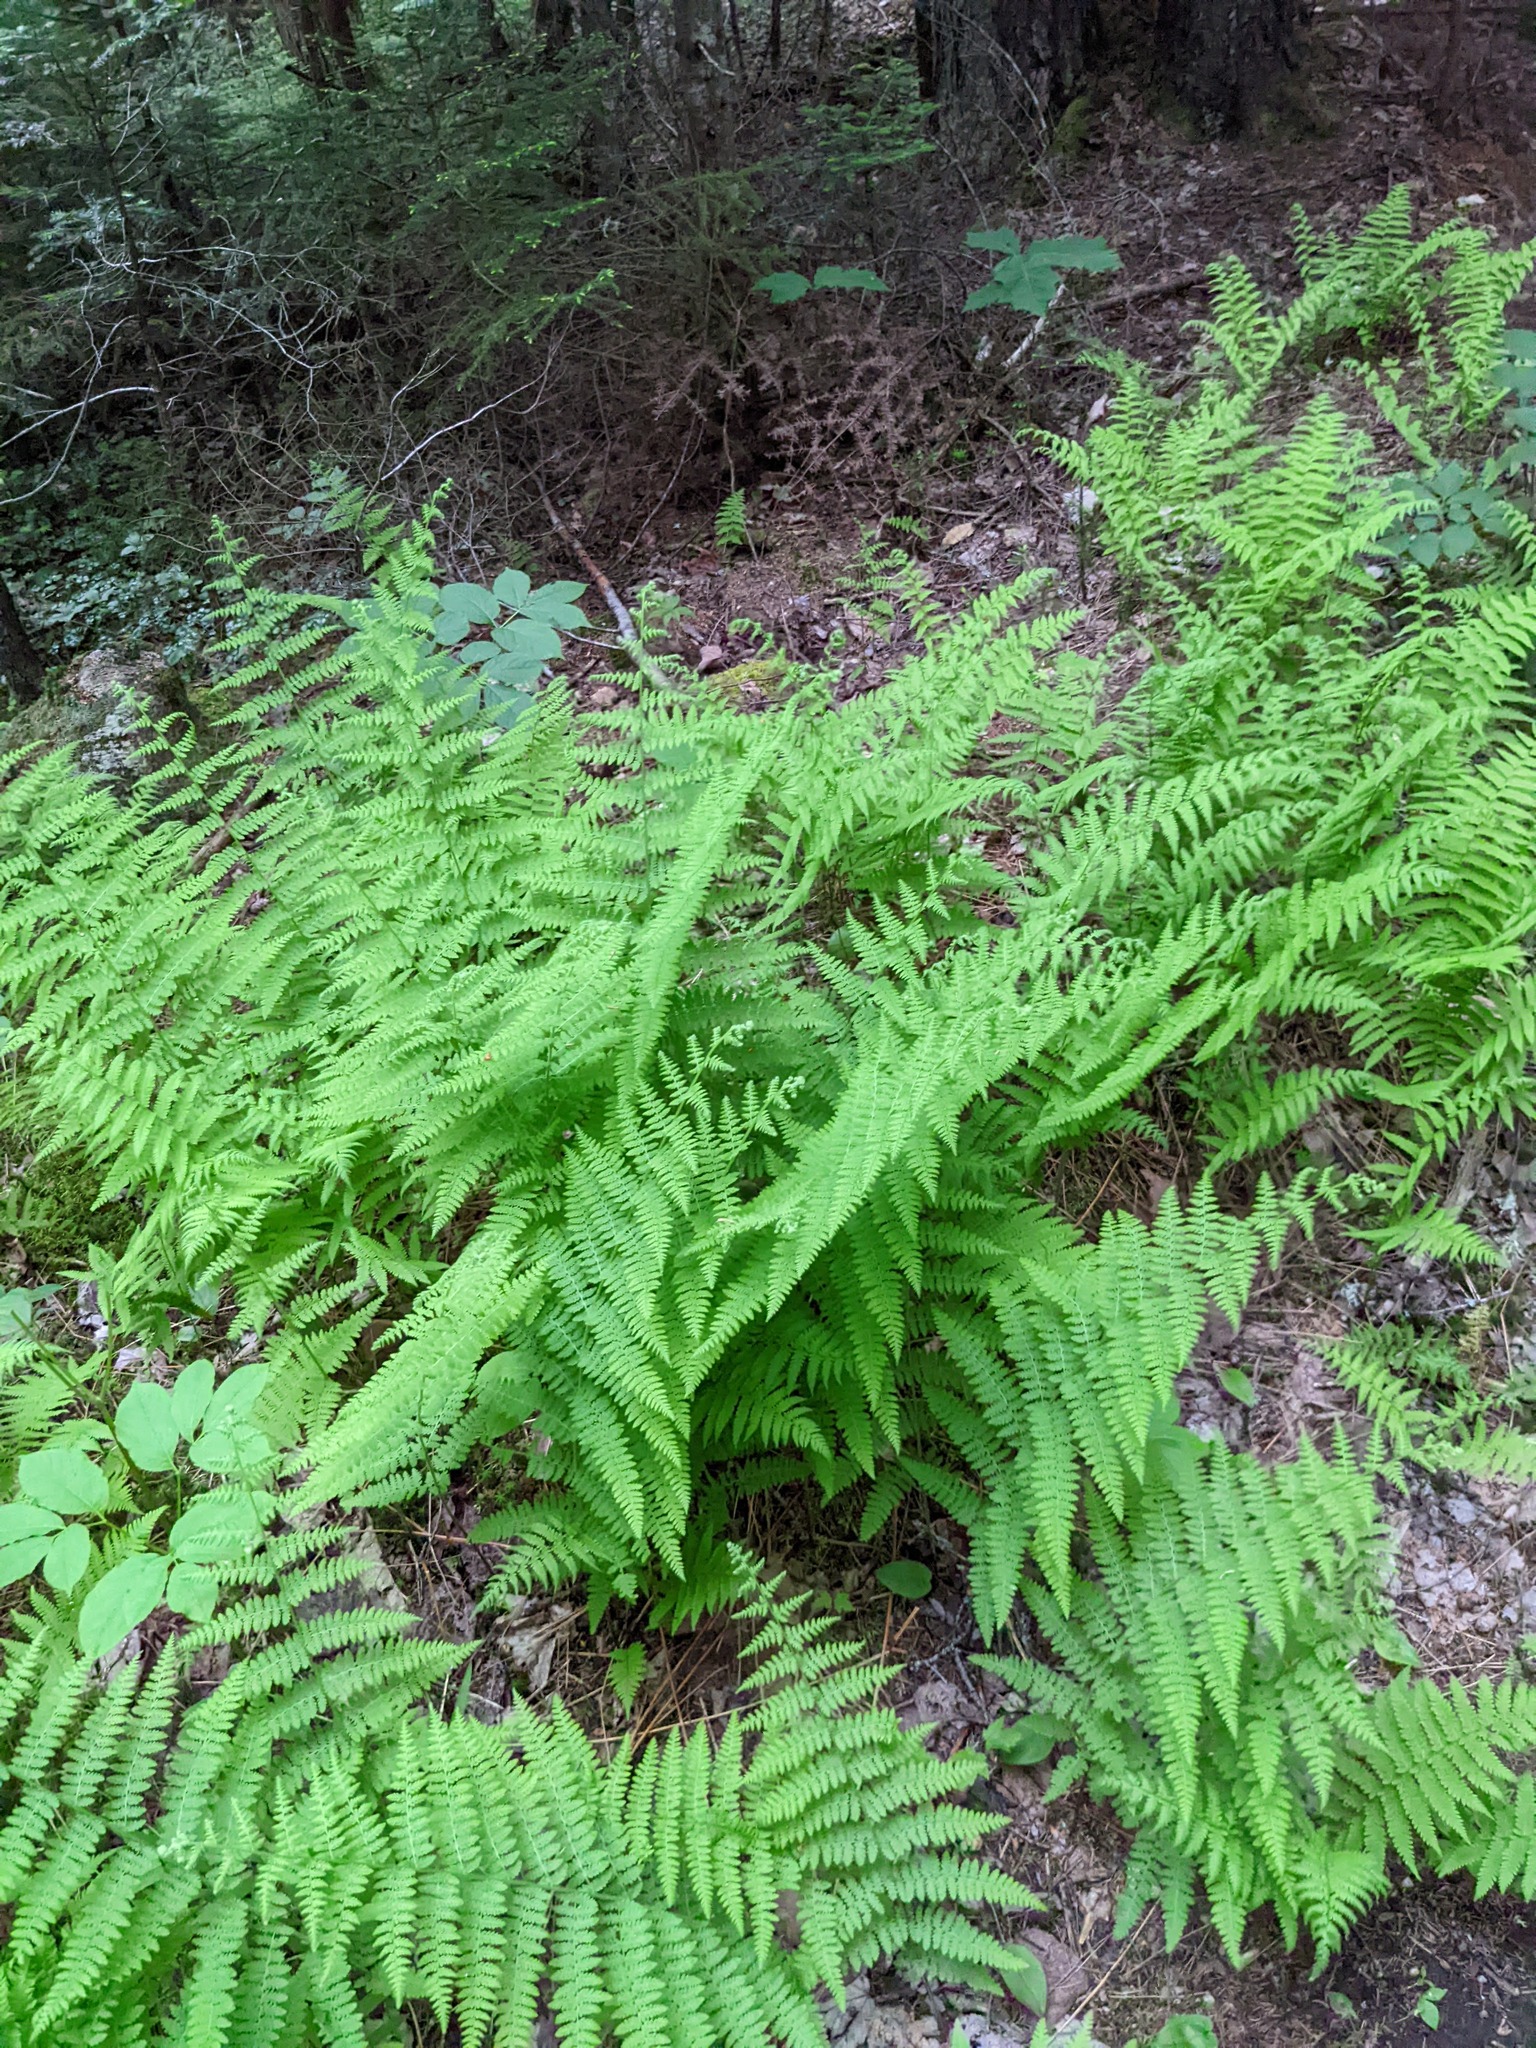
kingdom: Plantae
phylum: Tracheophyta
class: Polypodiopsida
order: Polypodiales
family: Dennstaedtiaceae
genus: Sitobolium
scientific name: Sitobolium punctilobum
